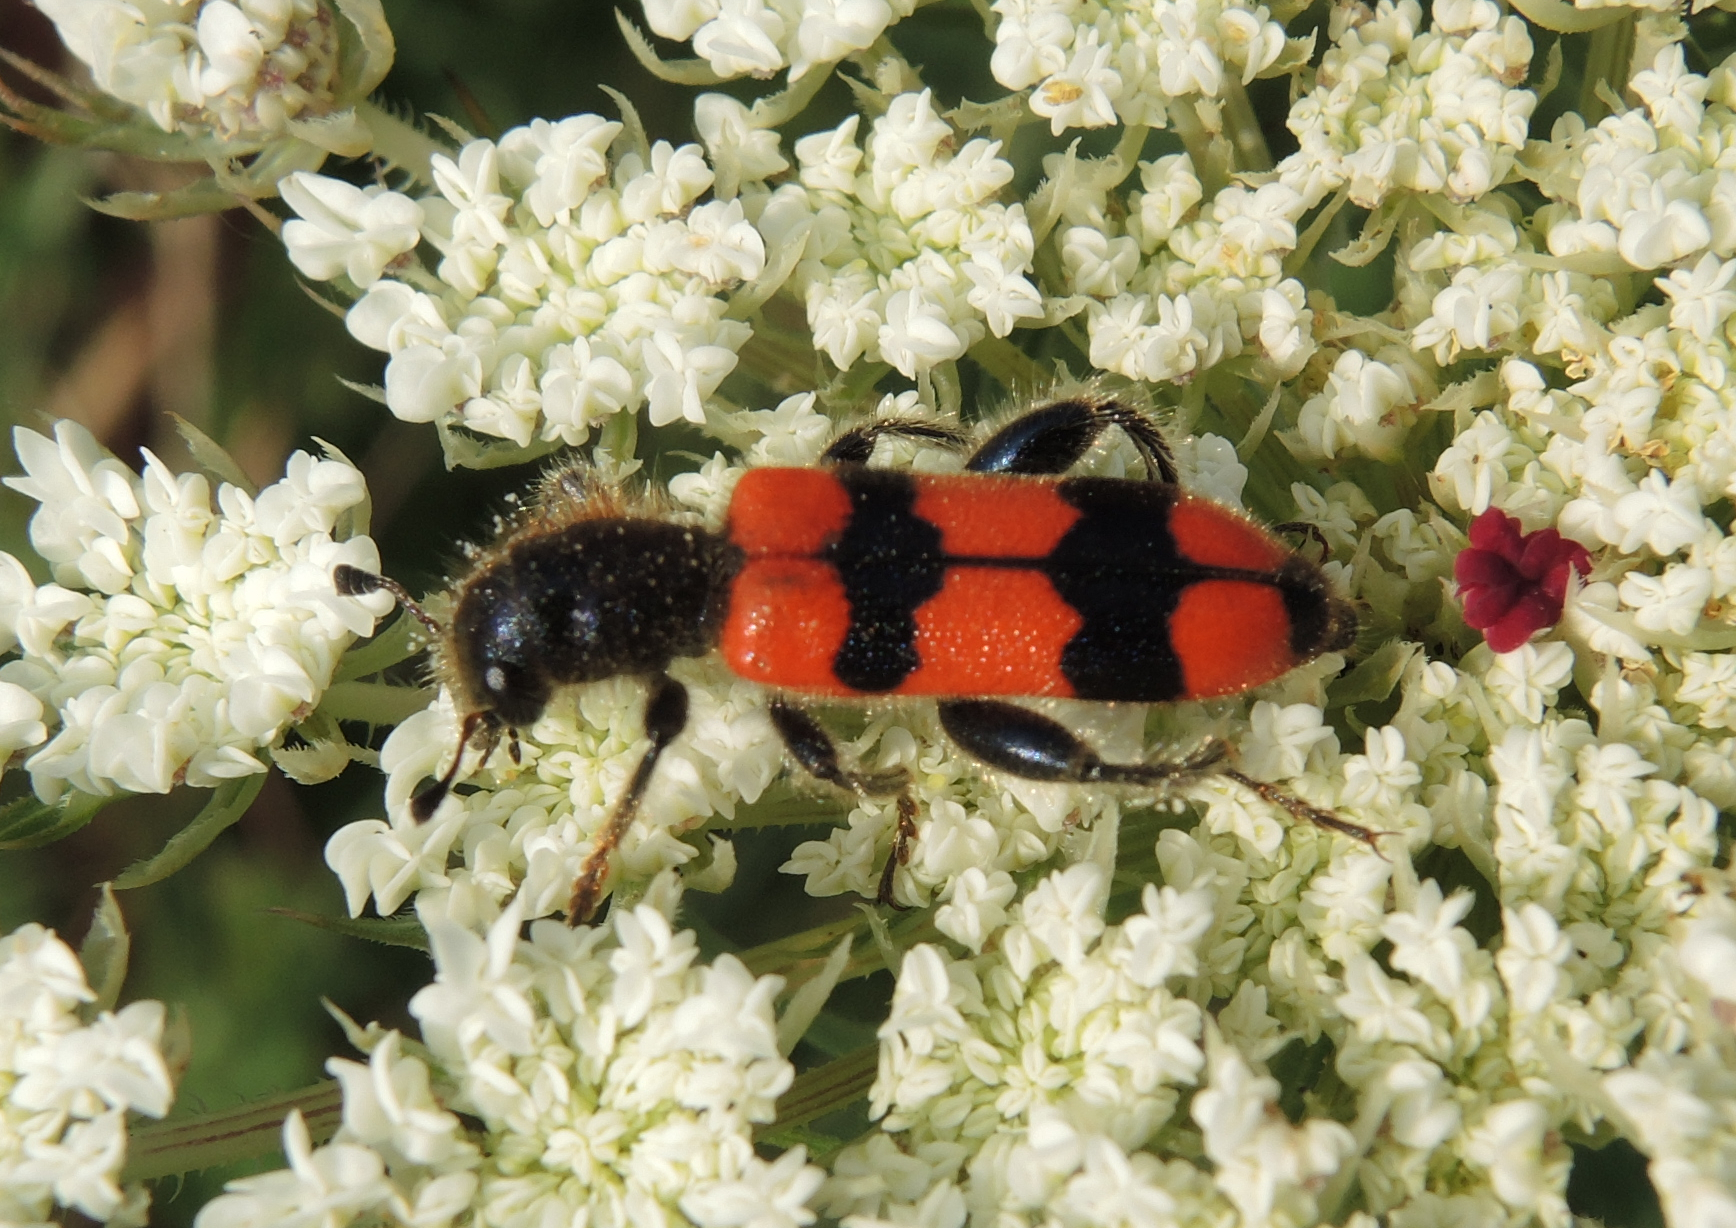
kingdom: Animalia
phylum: Arthropoda
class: Insecta
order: Coleoptera
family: Cleridae
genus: Trichodes
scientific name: Trichodes crabroniformis
